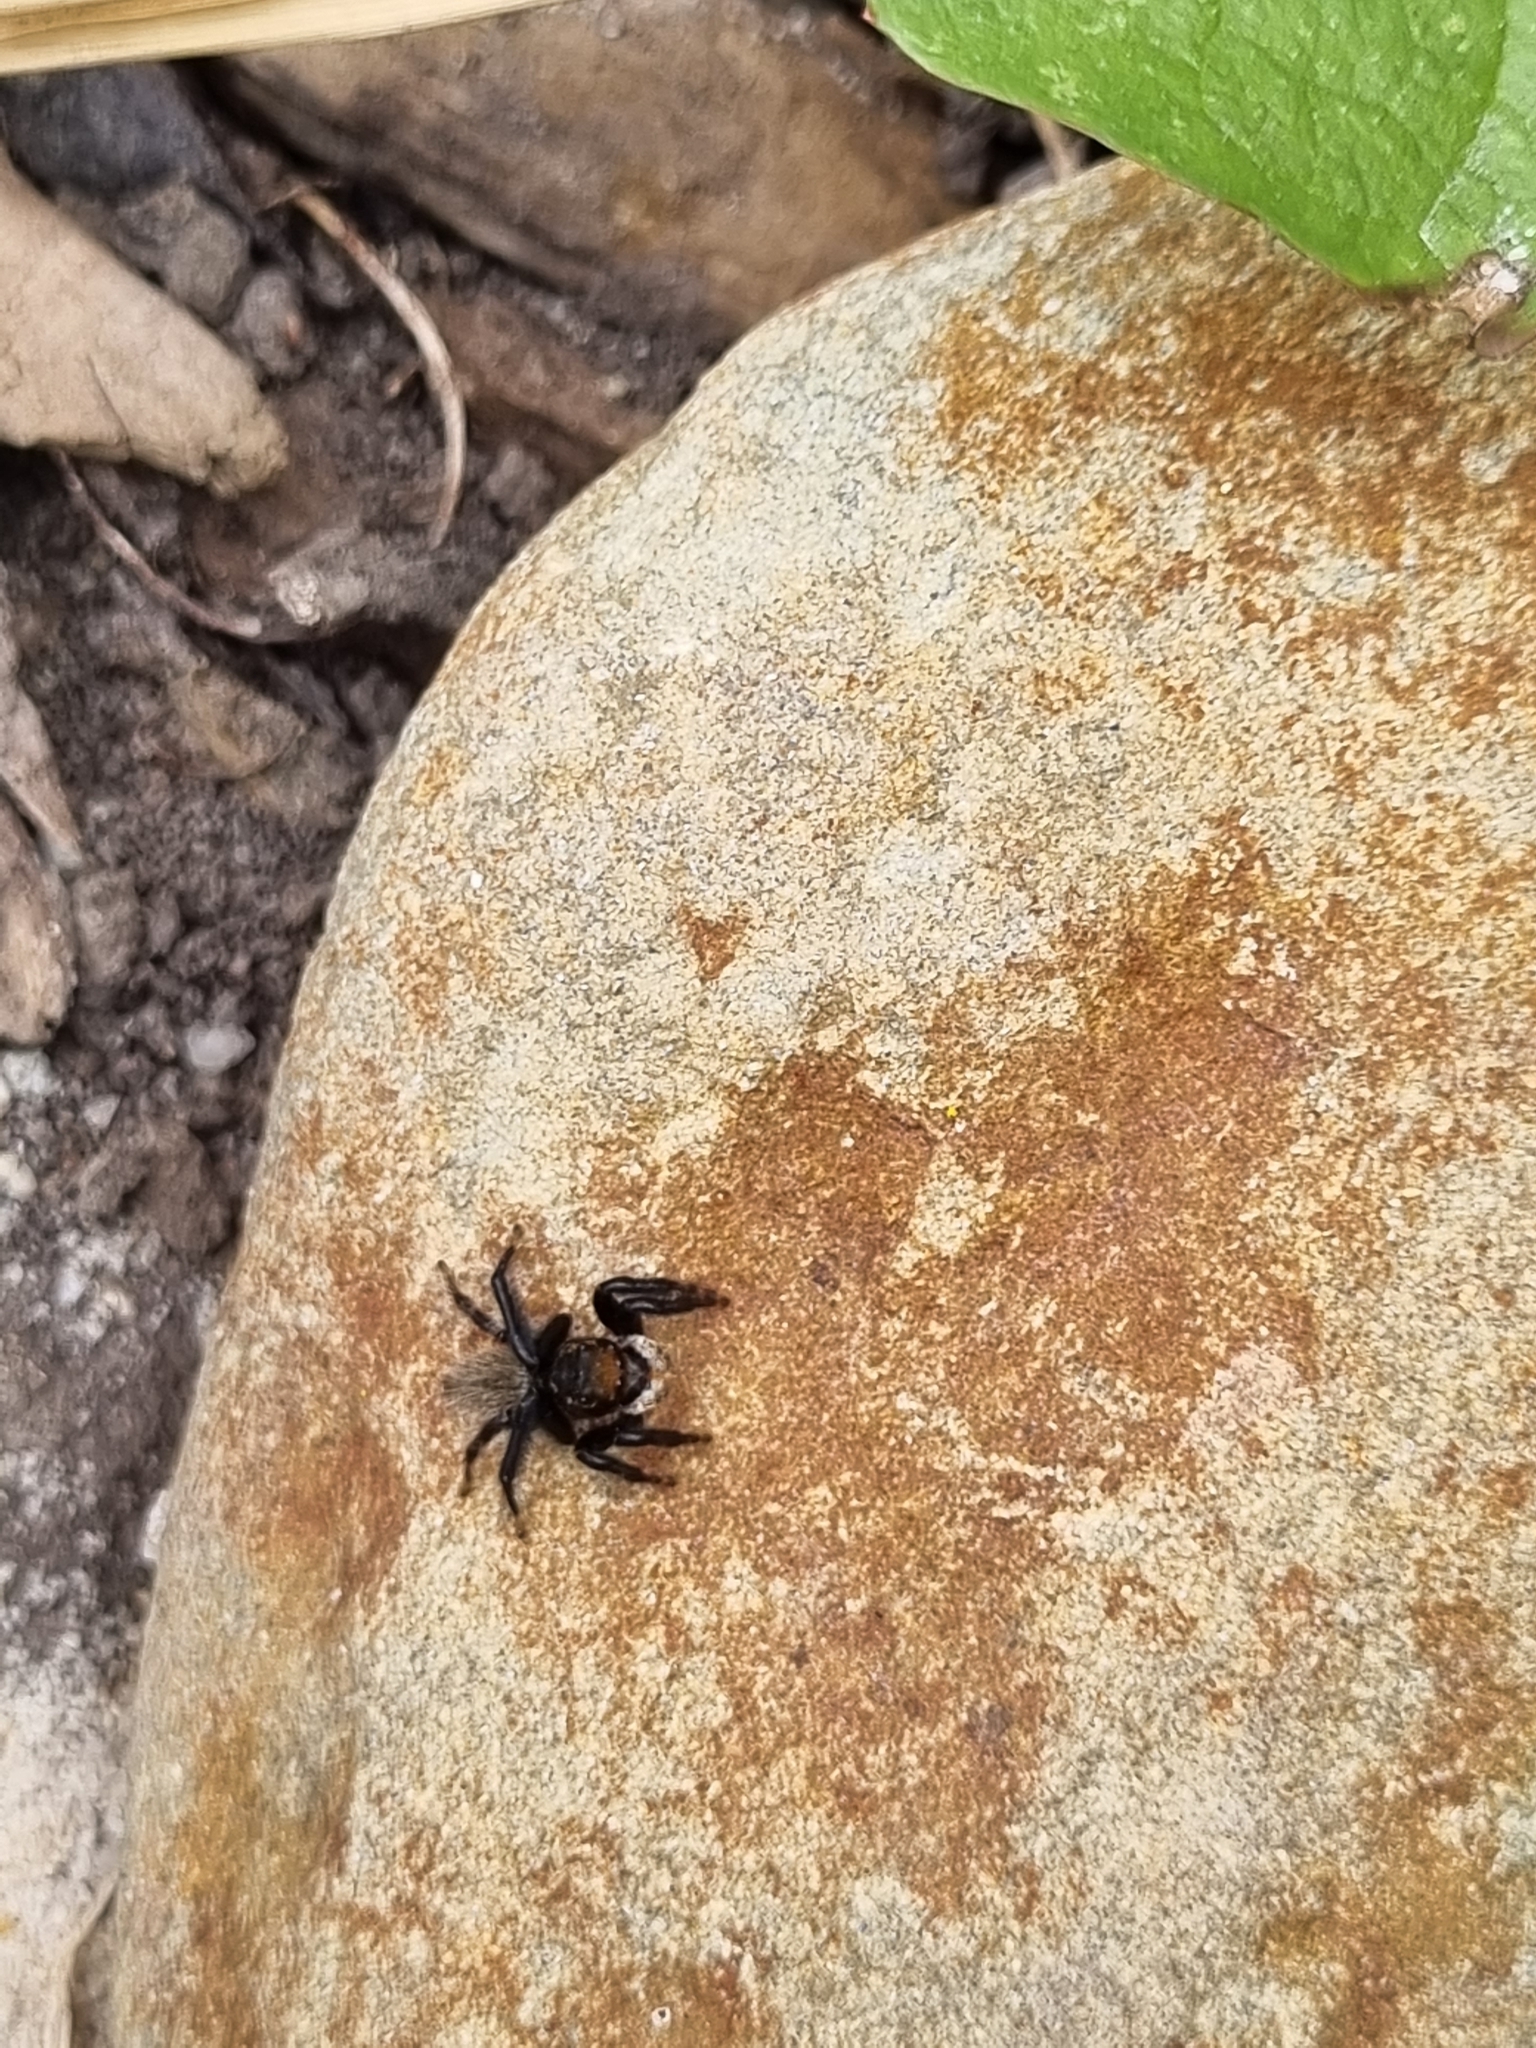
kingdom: Animalia
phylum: Arthropoda
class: Arachnida
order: Araneae
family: Salticidae
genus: Maratus
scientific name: Maratus griseus
